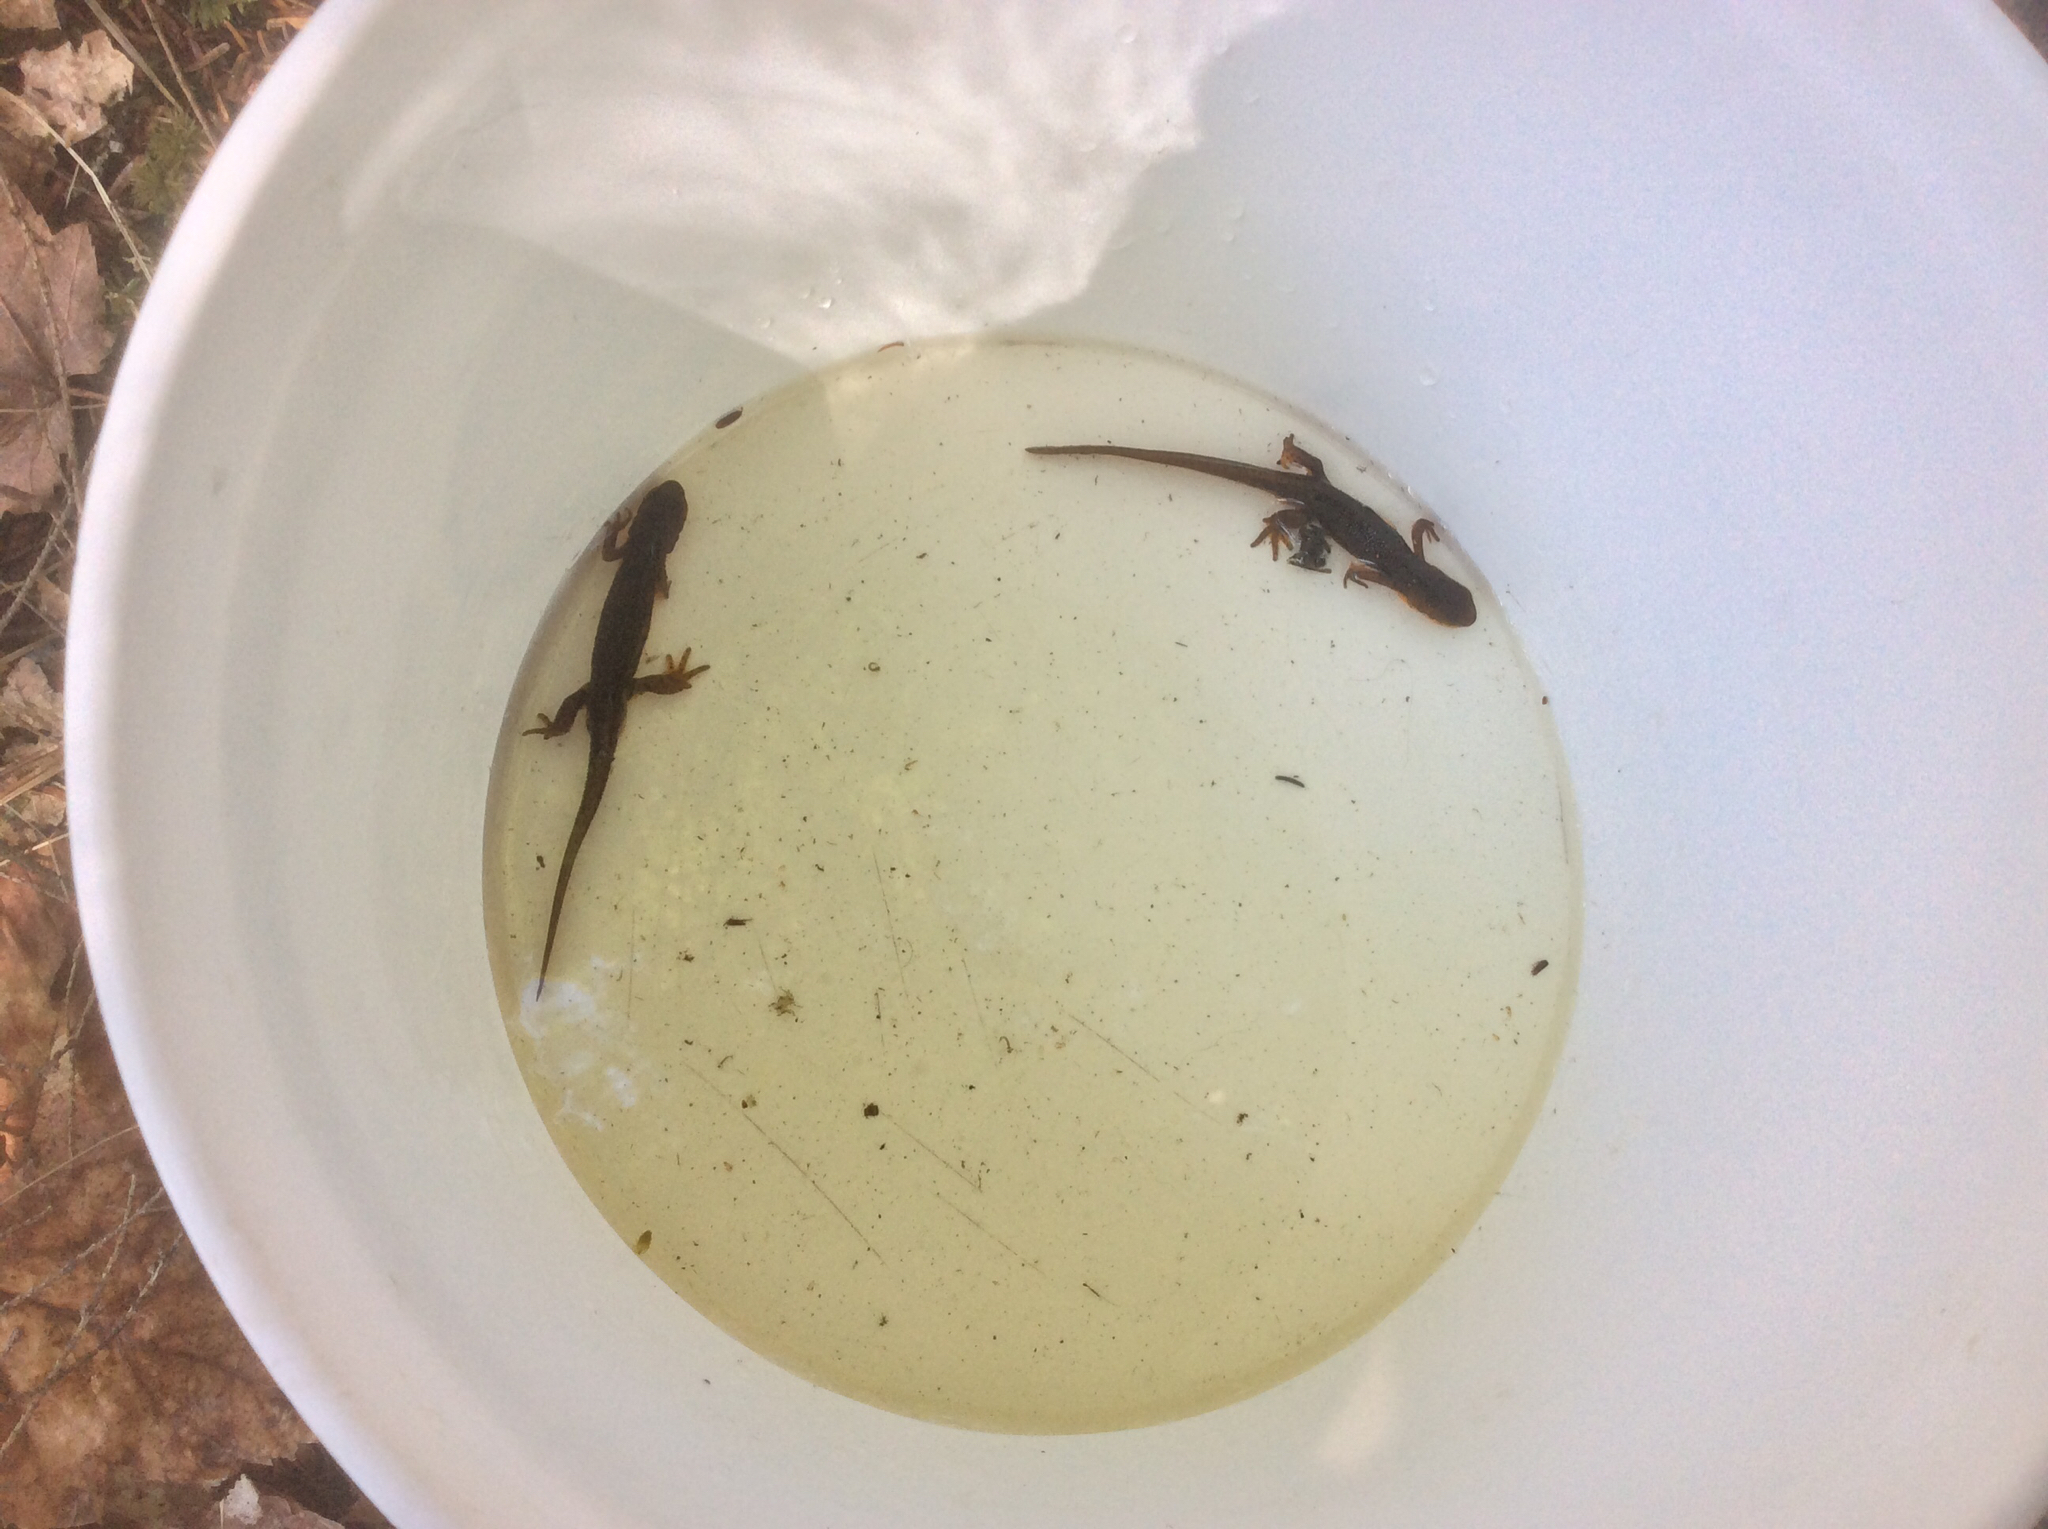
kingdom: Animalia
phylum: Chordata
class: Amphibia
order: Caudata
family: Salamandridae
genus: Notophthalmus
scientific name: Notophthalmus viridescens
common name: Eastern newt
